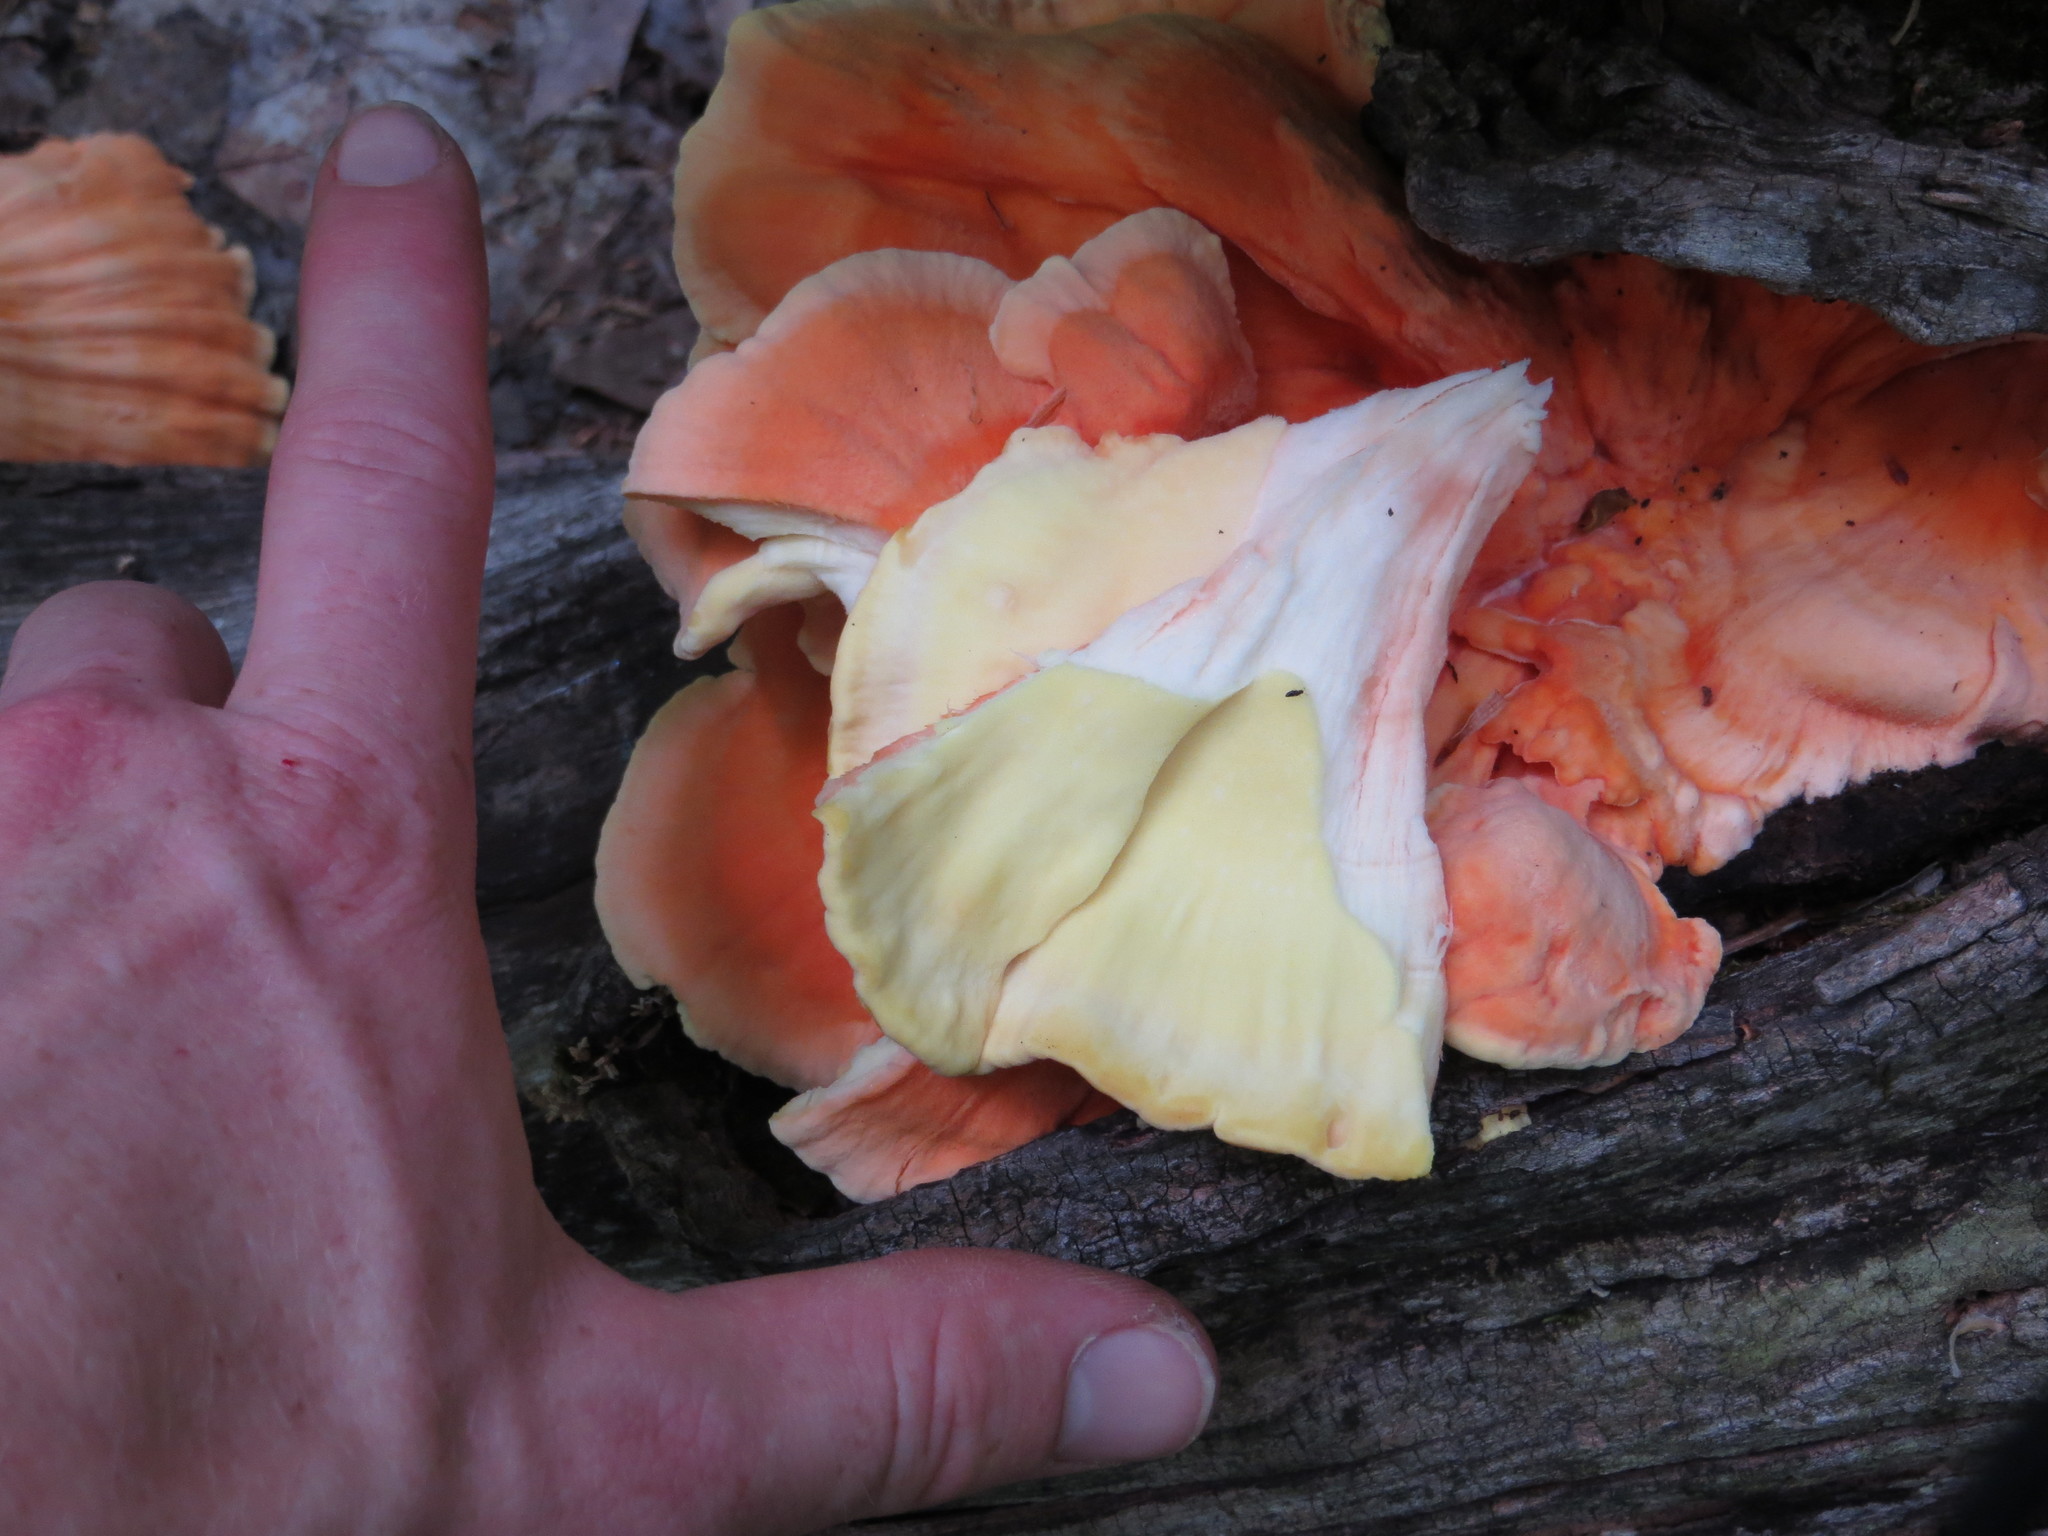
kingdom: Fungi
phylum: Basidiomycota
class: Agaricomycetes
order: Polyporales
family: Laetiporaceae
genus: Laetiporus
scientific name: Laetiporus sulphureus
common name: Chicken of the woods
